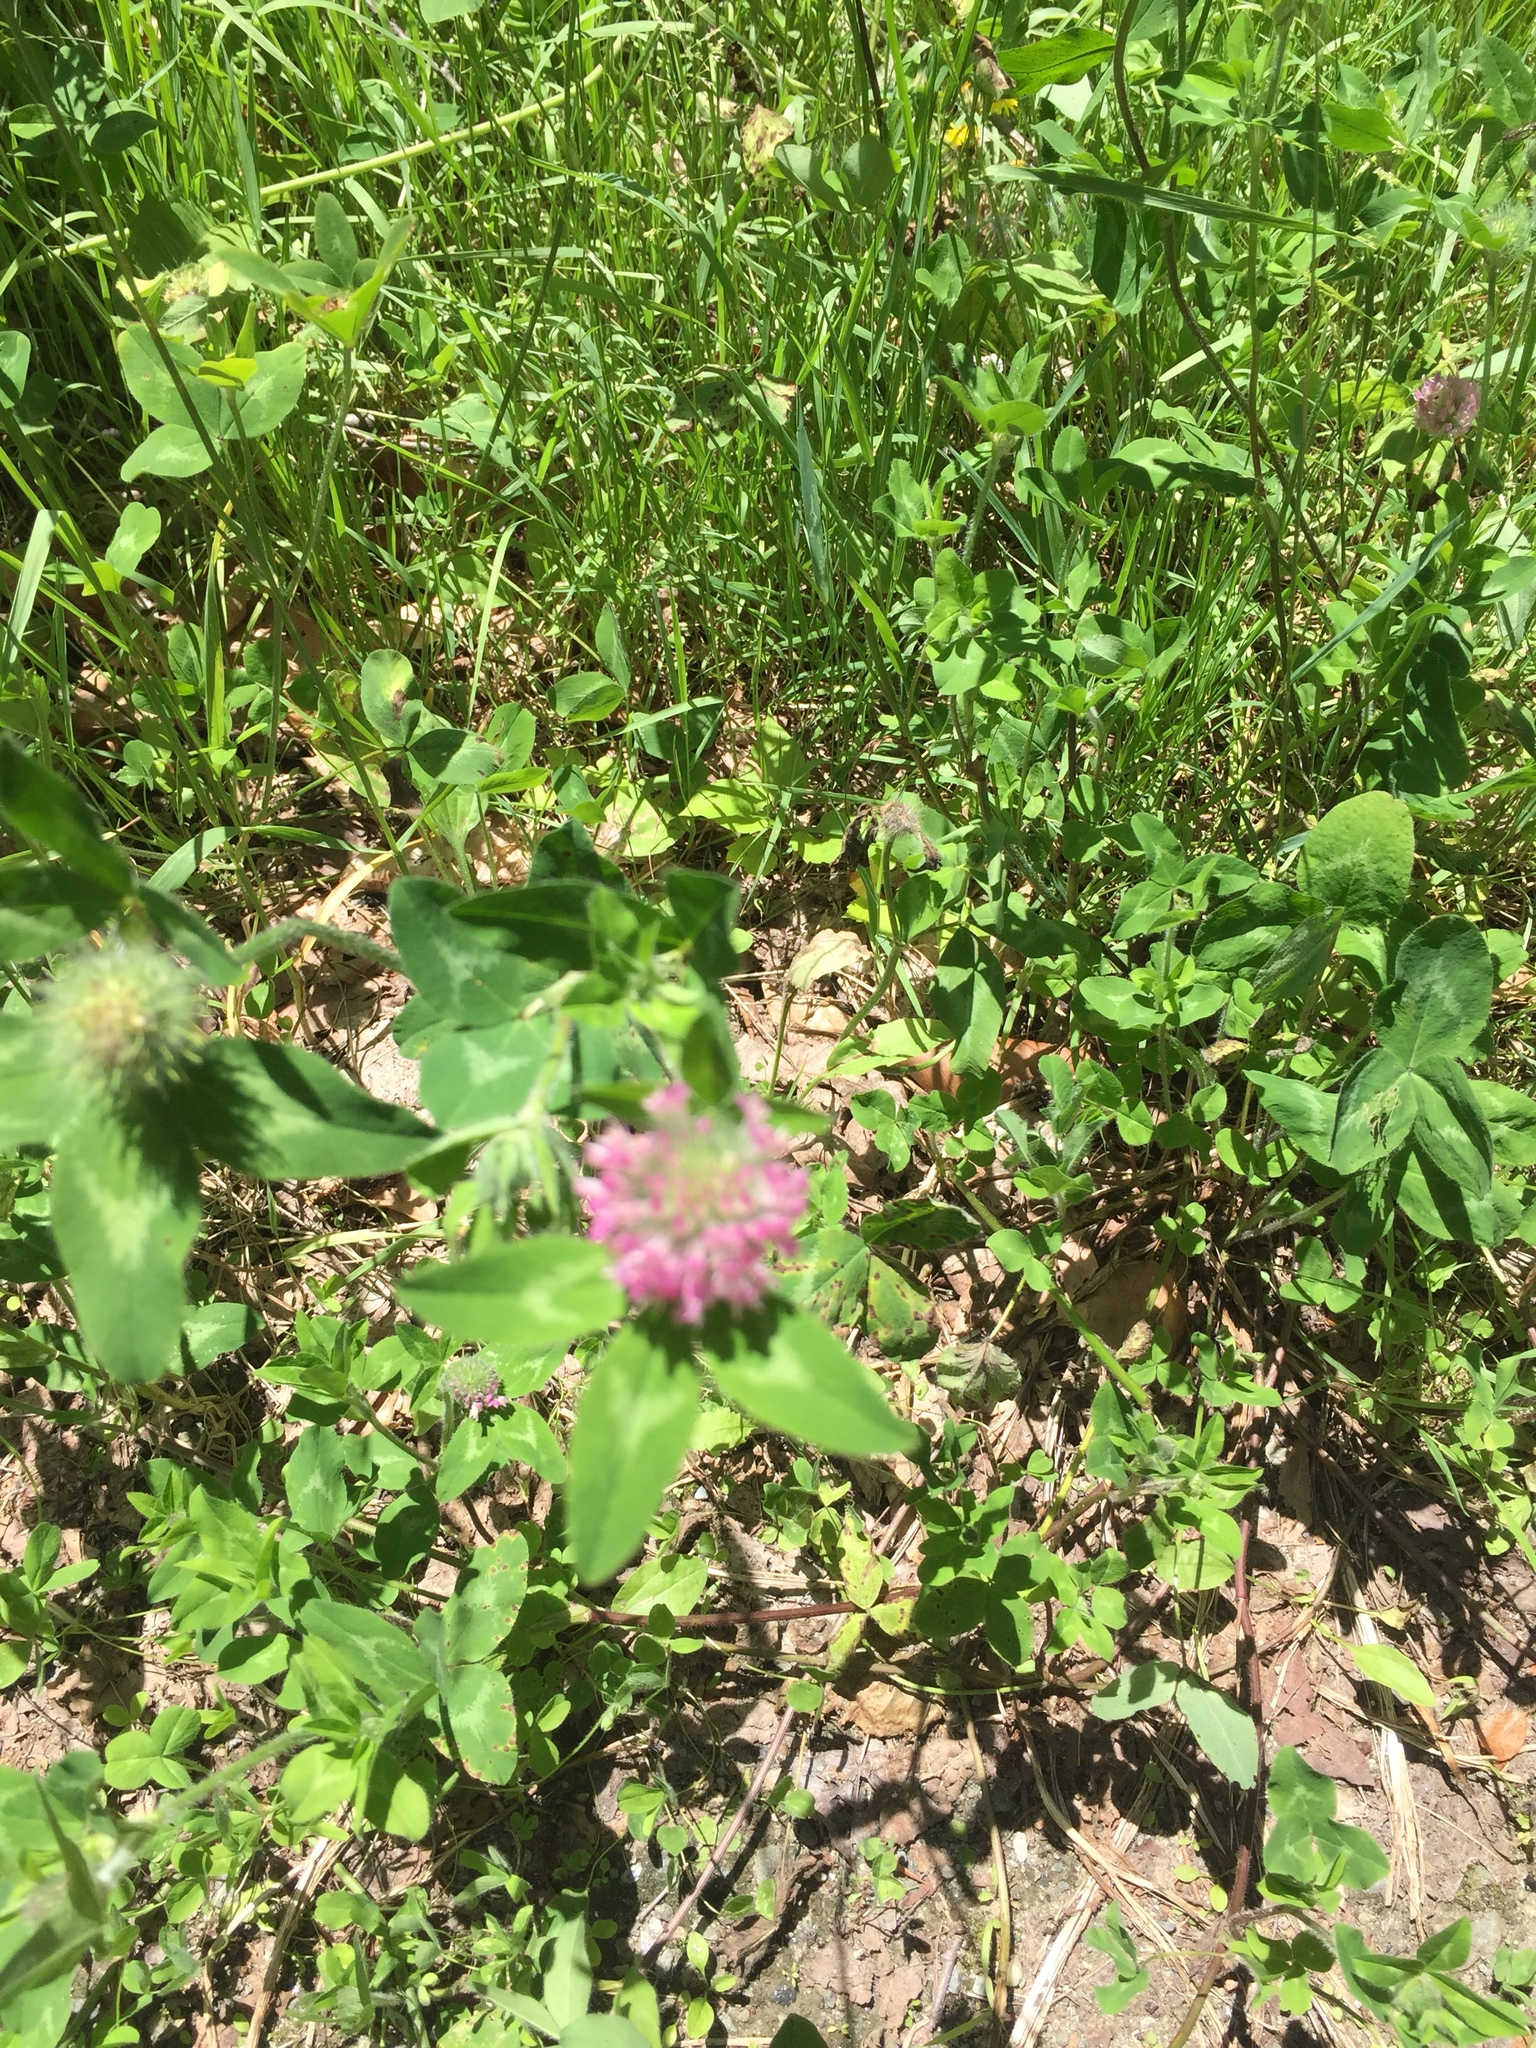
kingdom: Plantae
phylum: Tracheophyta
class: Magnoliopsida
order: Fabales
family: Fabaceae
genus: Trifolium
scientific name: Trifolium pratense
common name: Red clover
